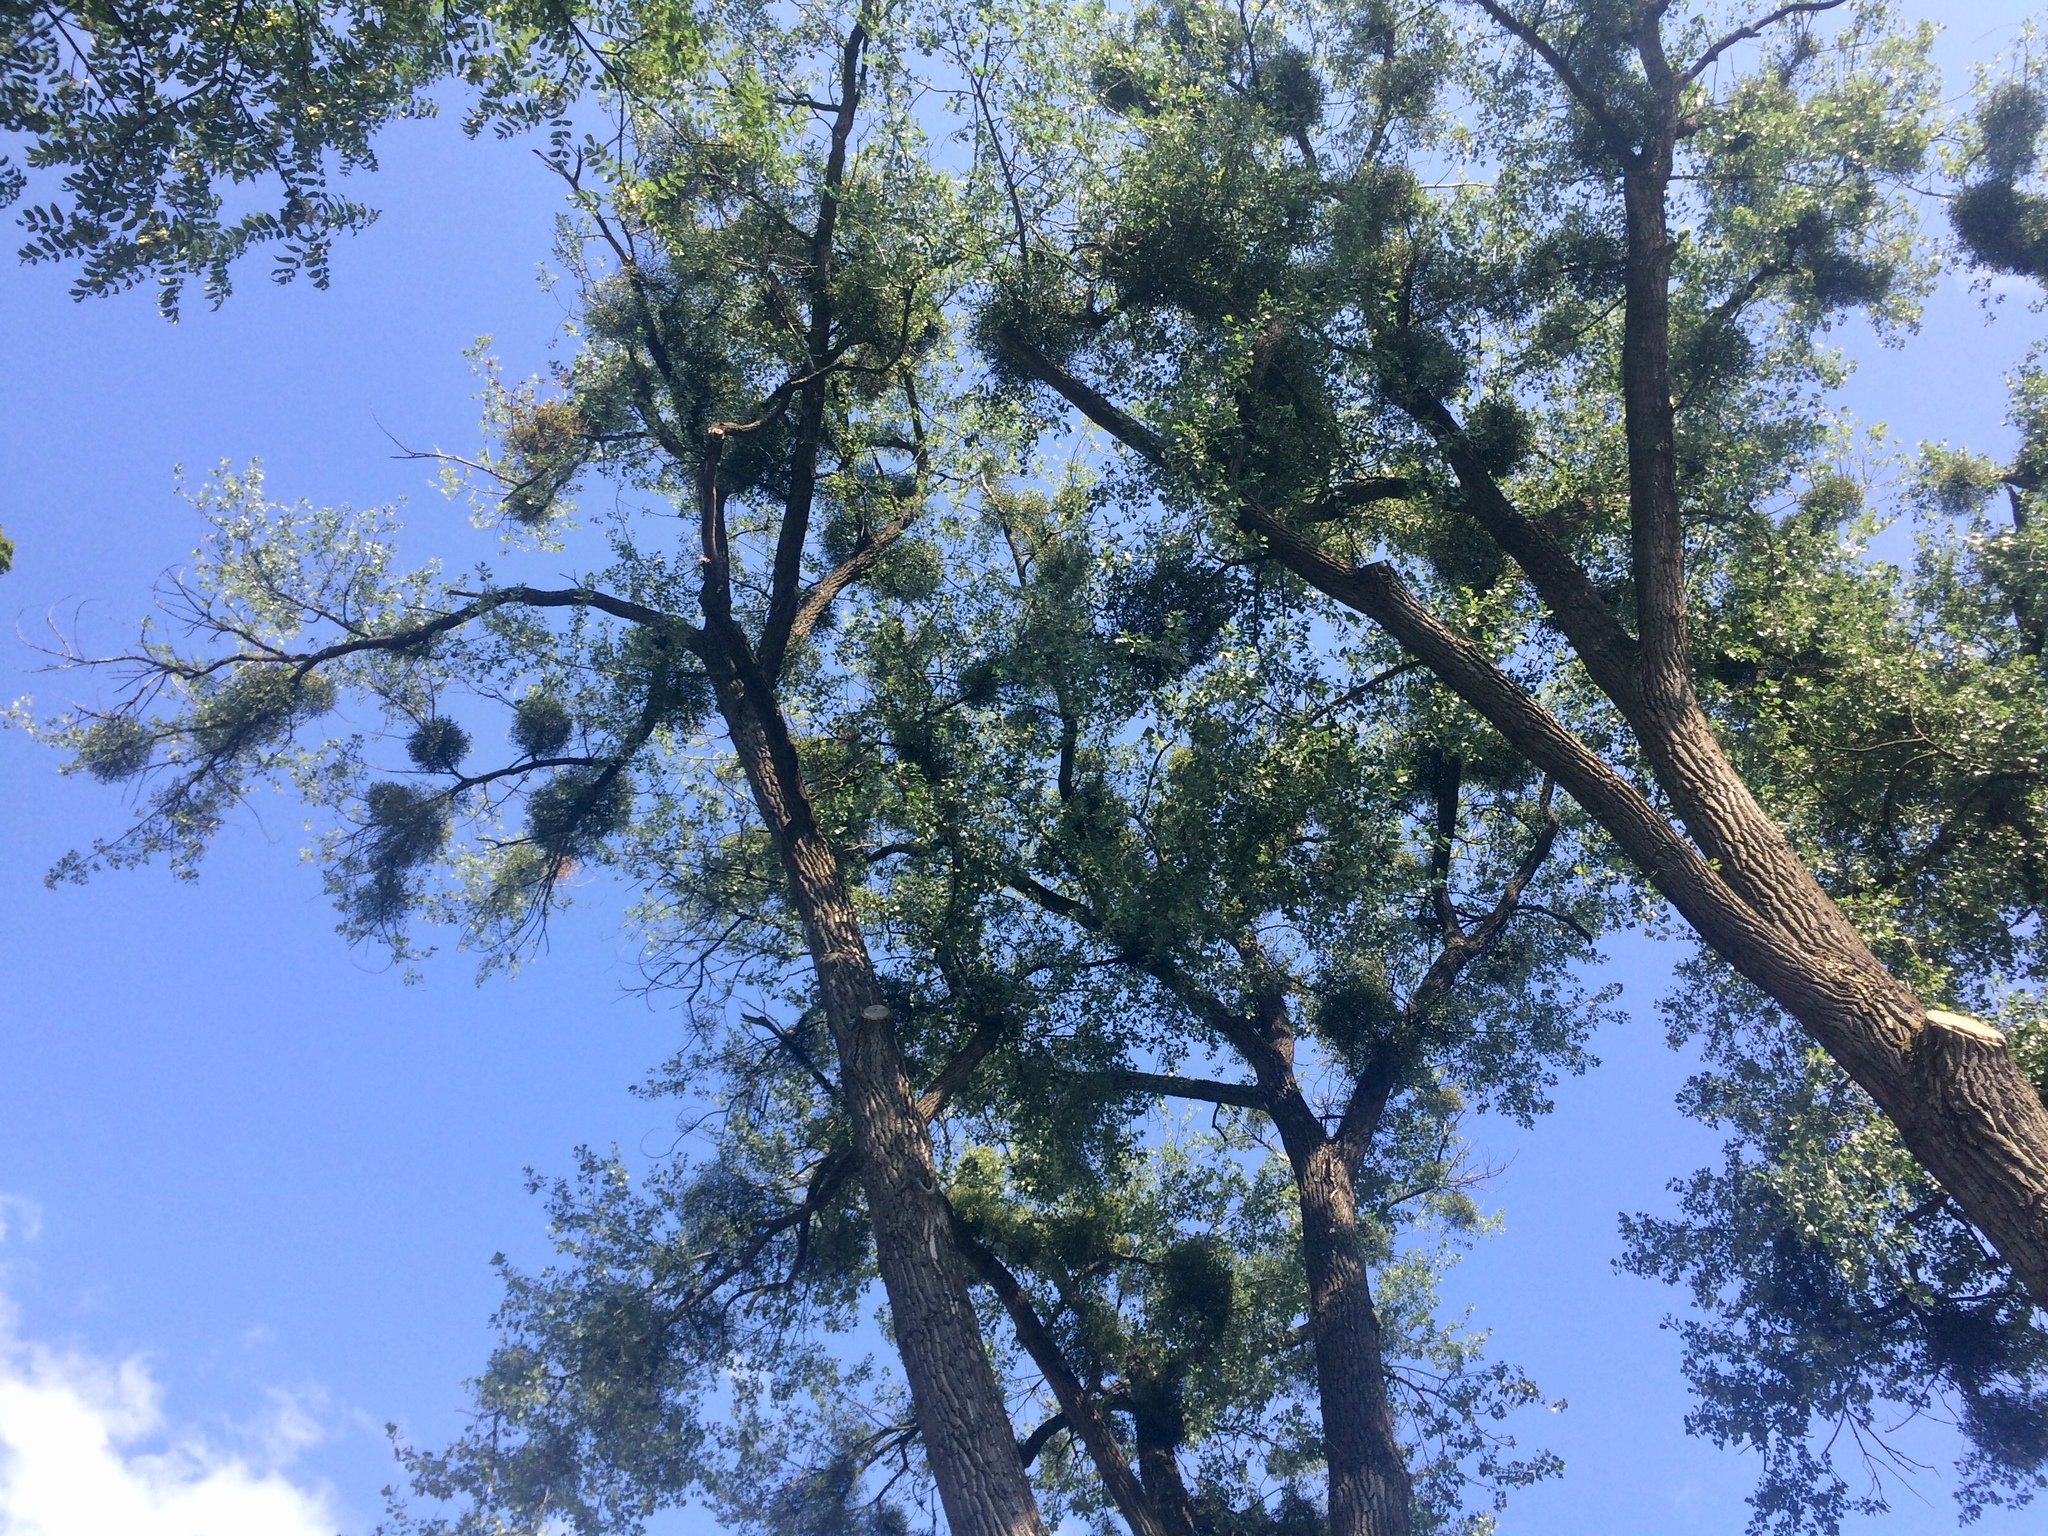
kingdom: Plantae
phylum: Tracheophyta
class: Magnoliopsida
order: Santalales
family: Viscaceae
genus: Viscum
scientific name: Viscum album
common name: Mistletoe
